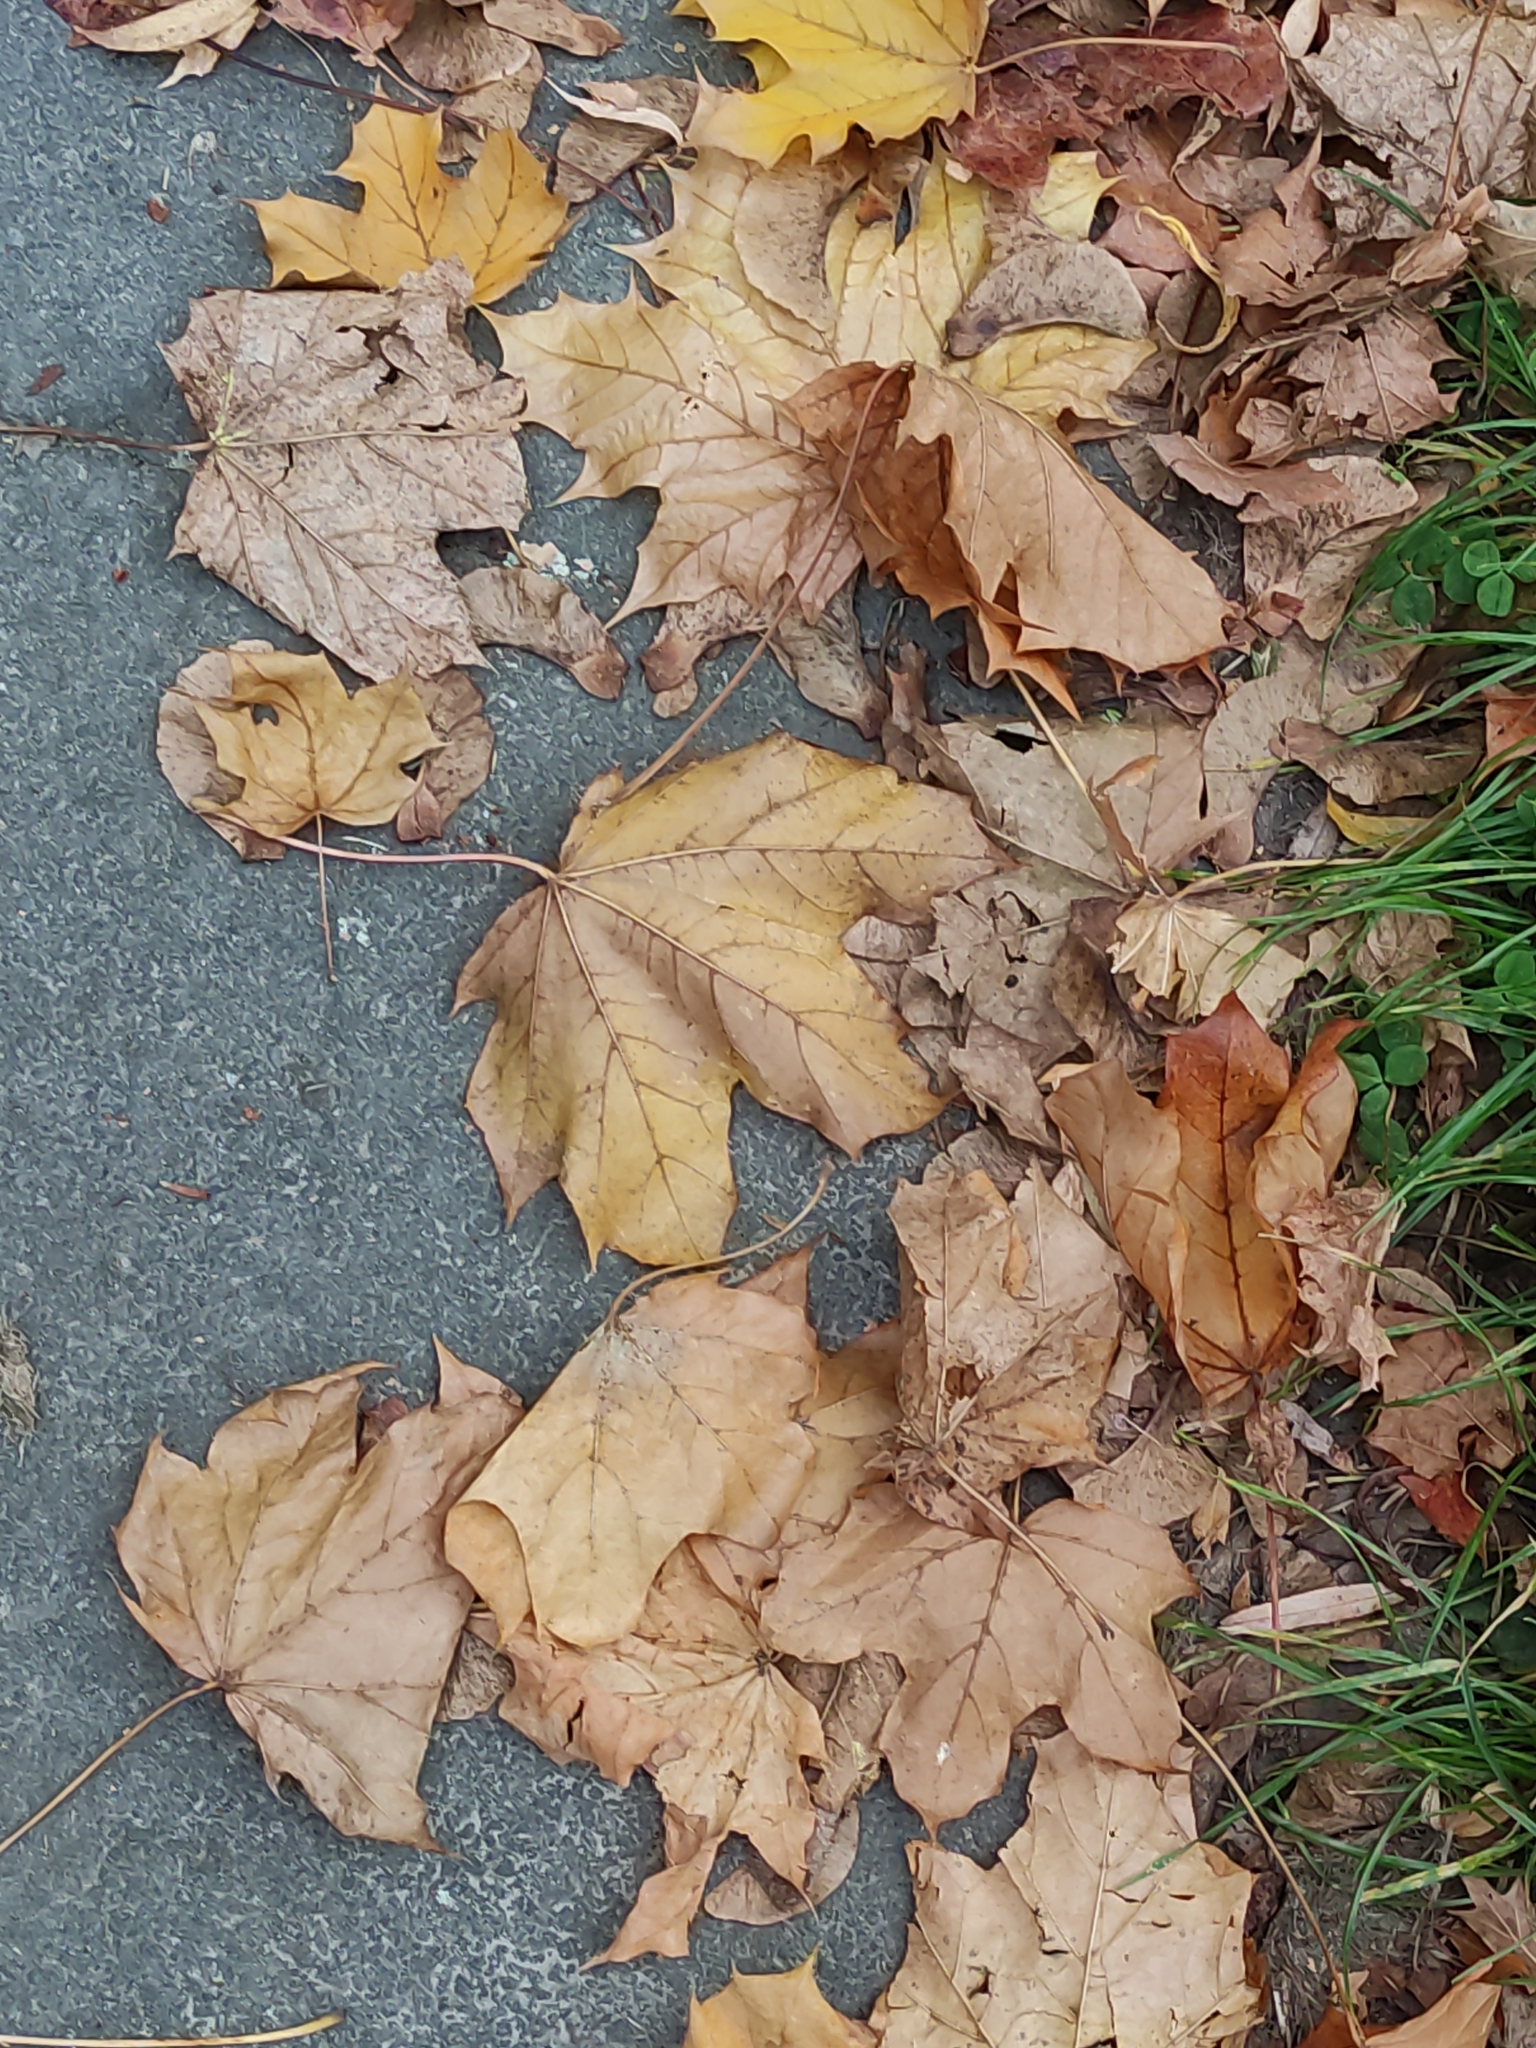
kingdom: Plantae
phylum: Tracheophyta
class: Magnoliopsida
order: Sapindales
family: Sapindaceae
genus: Acer
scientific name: Acer platanoides
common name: Norway maple
